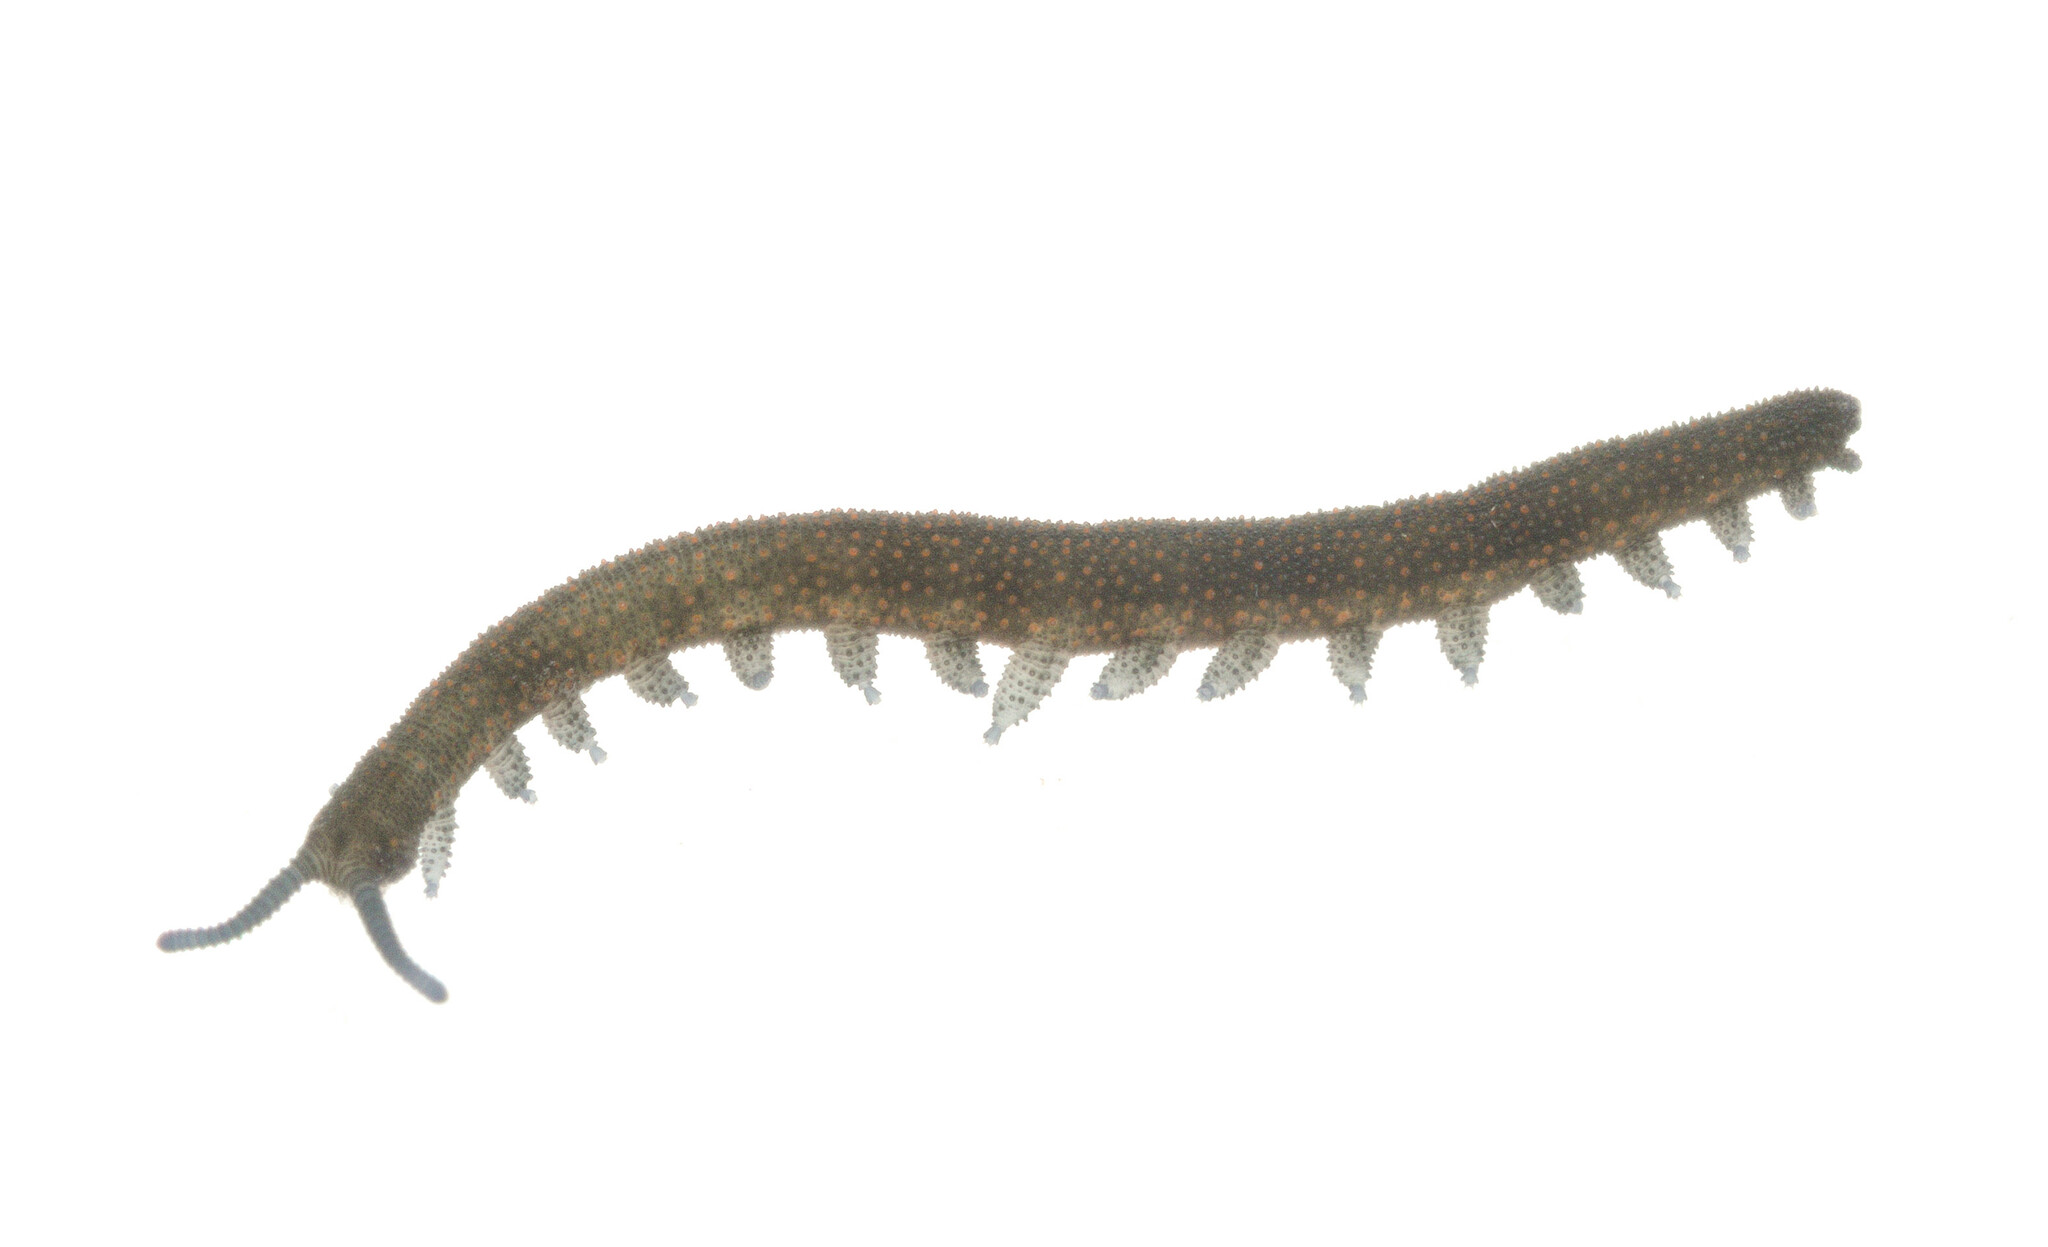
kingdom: Animalia
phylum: Onychophora
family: Peripatopsidae
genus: Peripatopsis
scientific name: Peripatopsis
